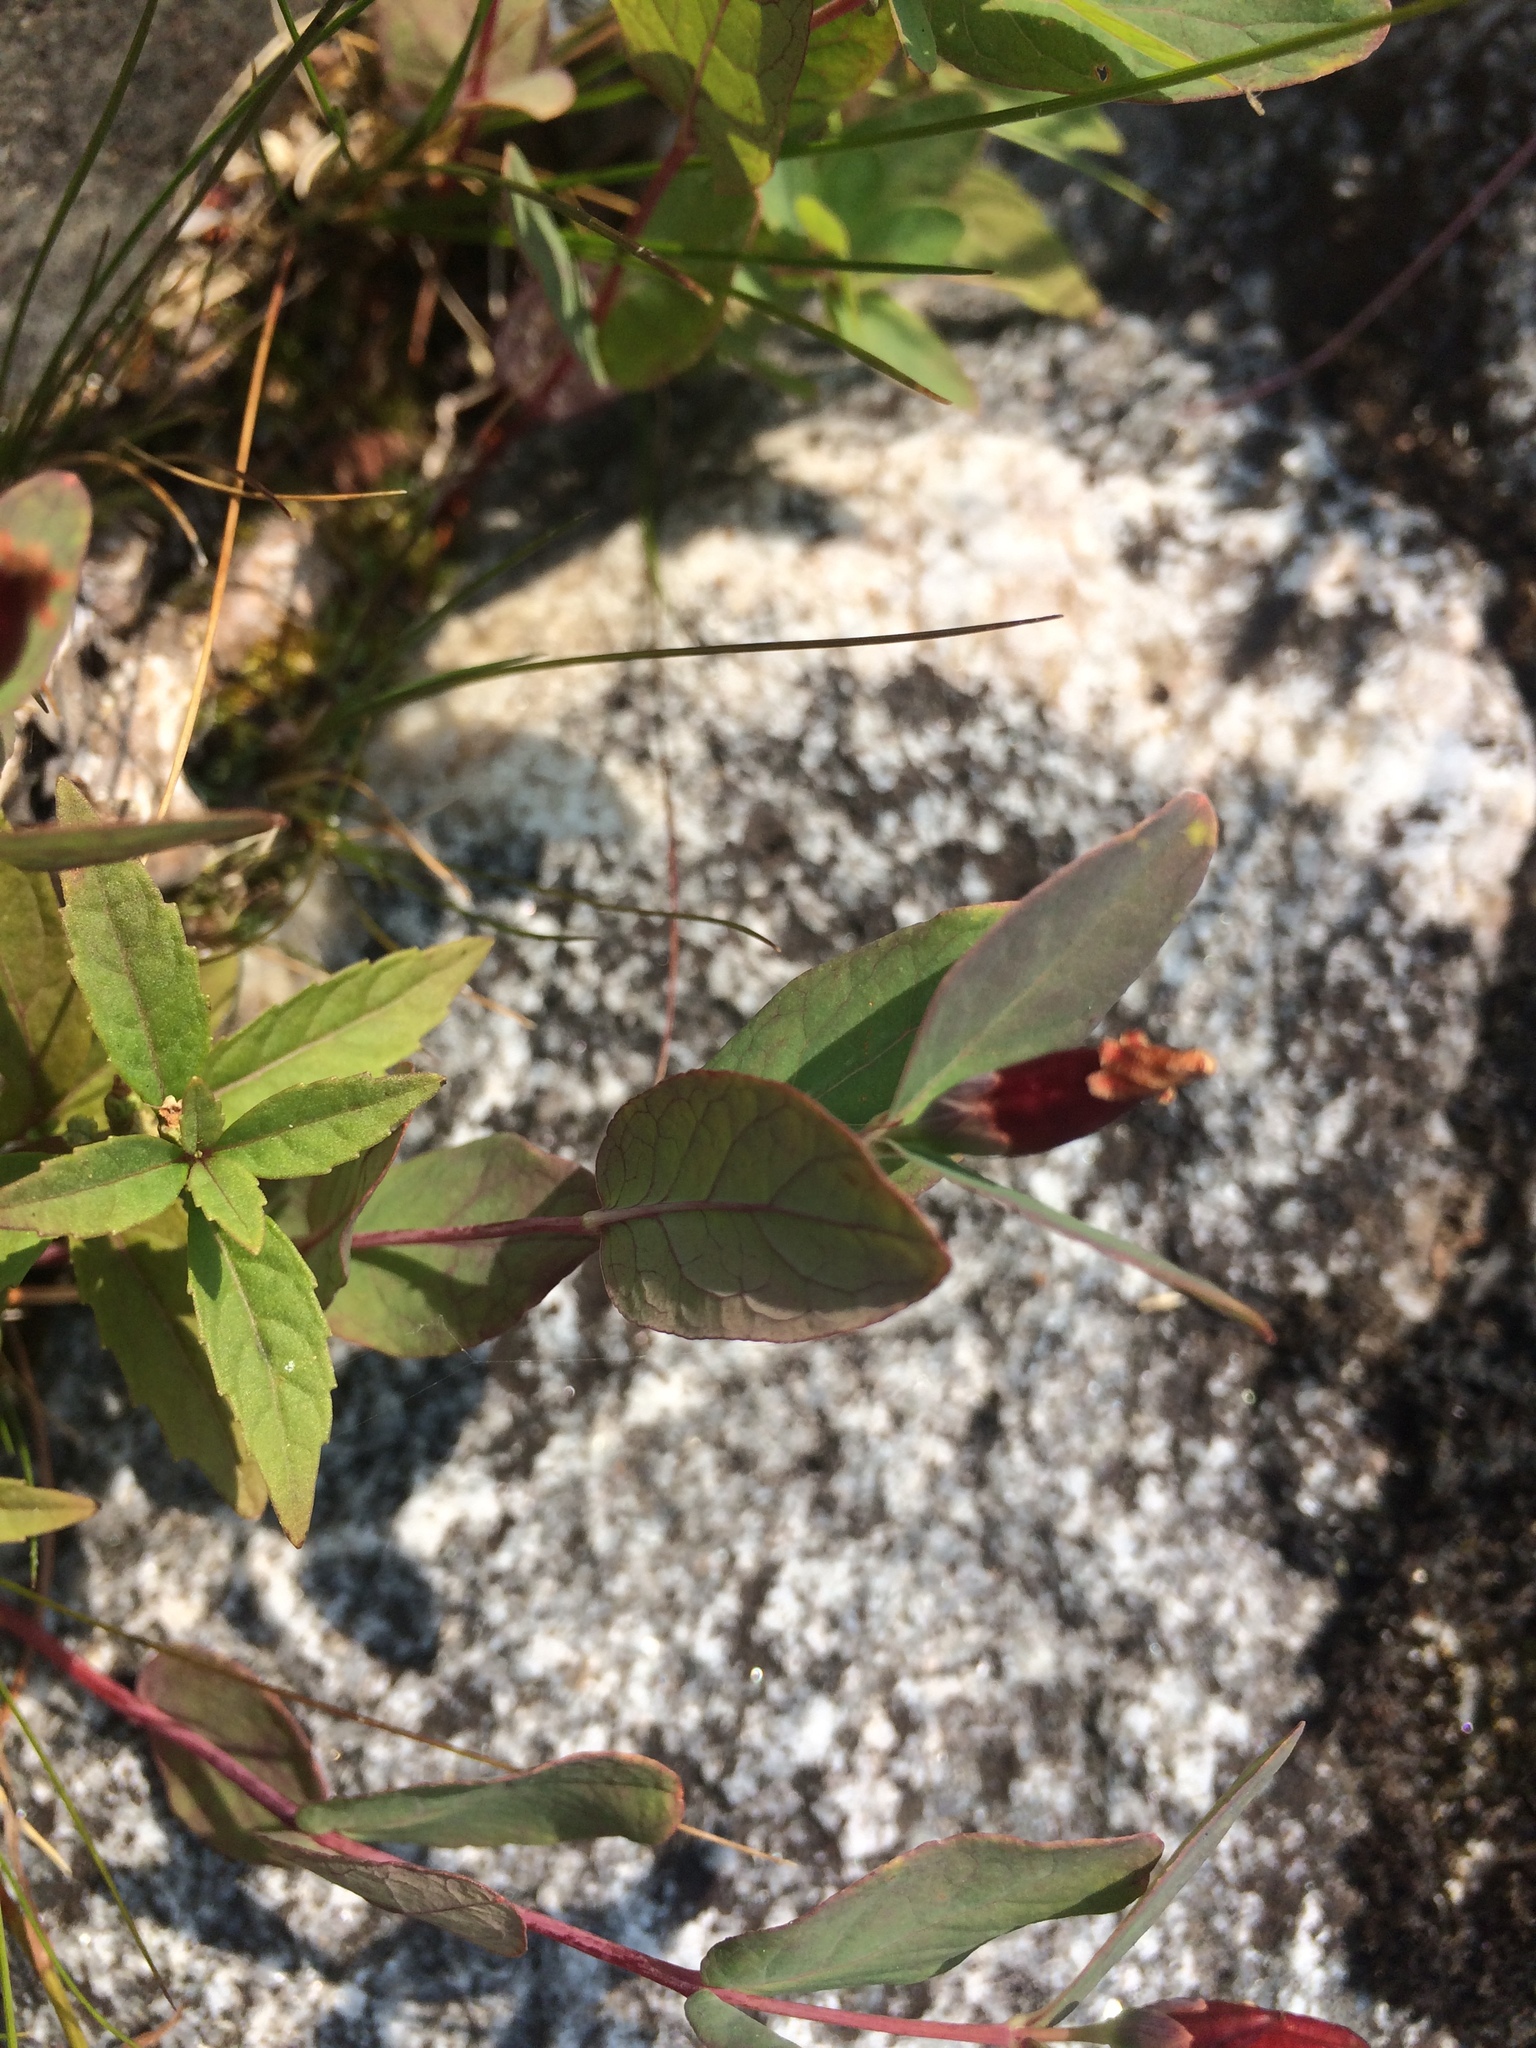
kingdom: Plantae
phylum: Tracheophyta
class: Magnoliopsida
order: Malpighiales
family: Hypericaceae
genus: Triadenum
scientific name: Triadenum fraseri
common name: Fraser's marsh st. johnswort
